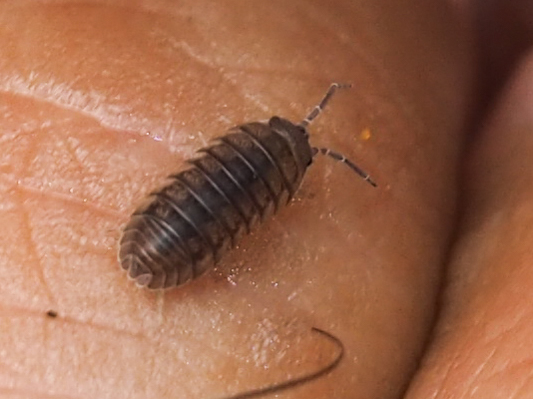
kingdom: Animalia
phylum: Arthropoda
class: Malacostraca
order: Isopoda
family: Armadillidiidae
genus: Armadillidium
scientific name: Armadillidium nasatum
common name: Isopod
